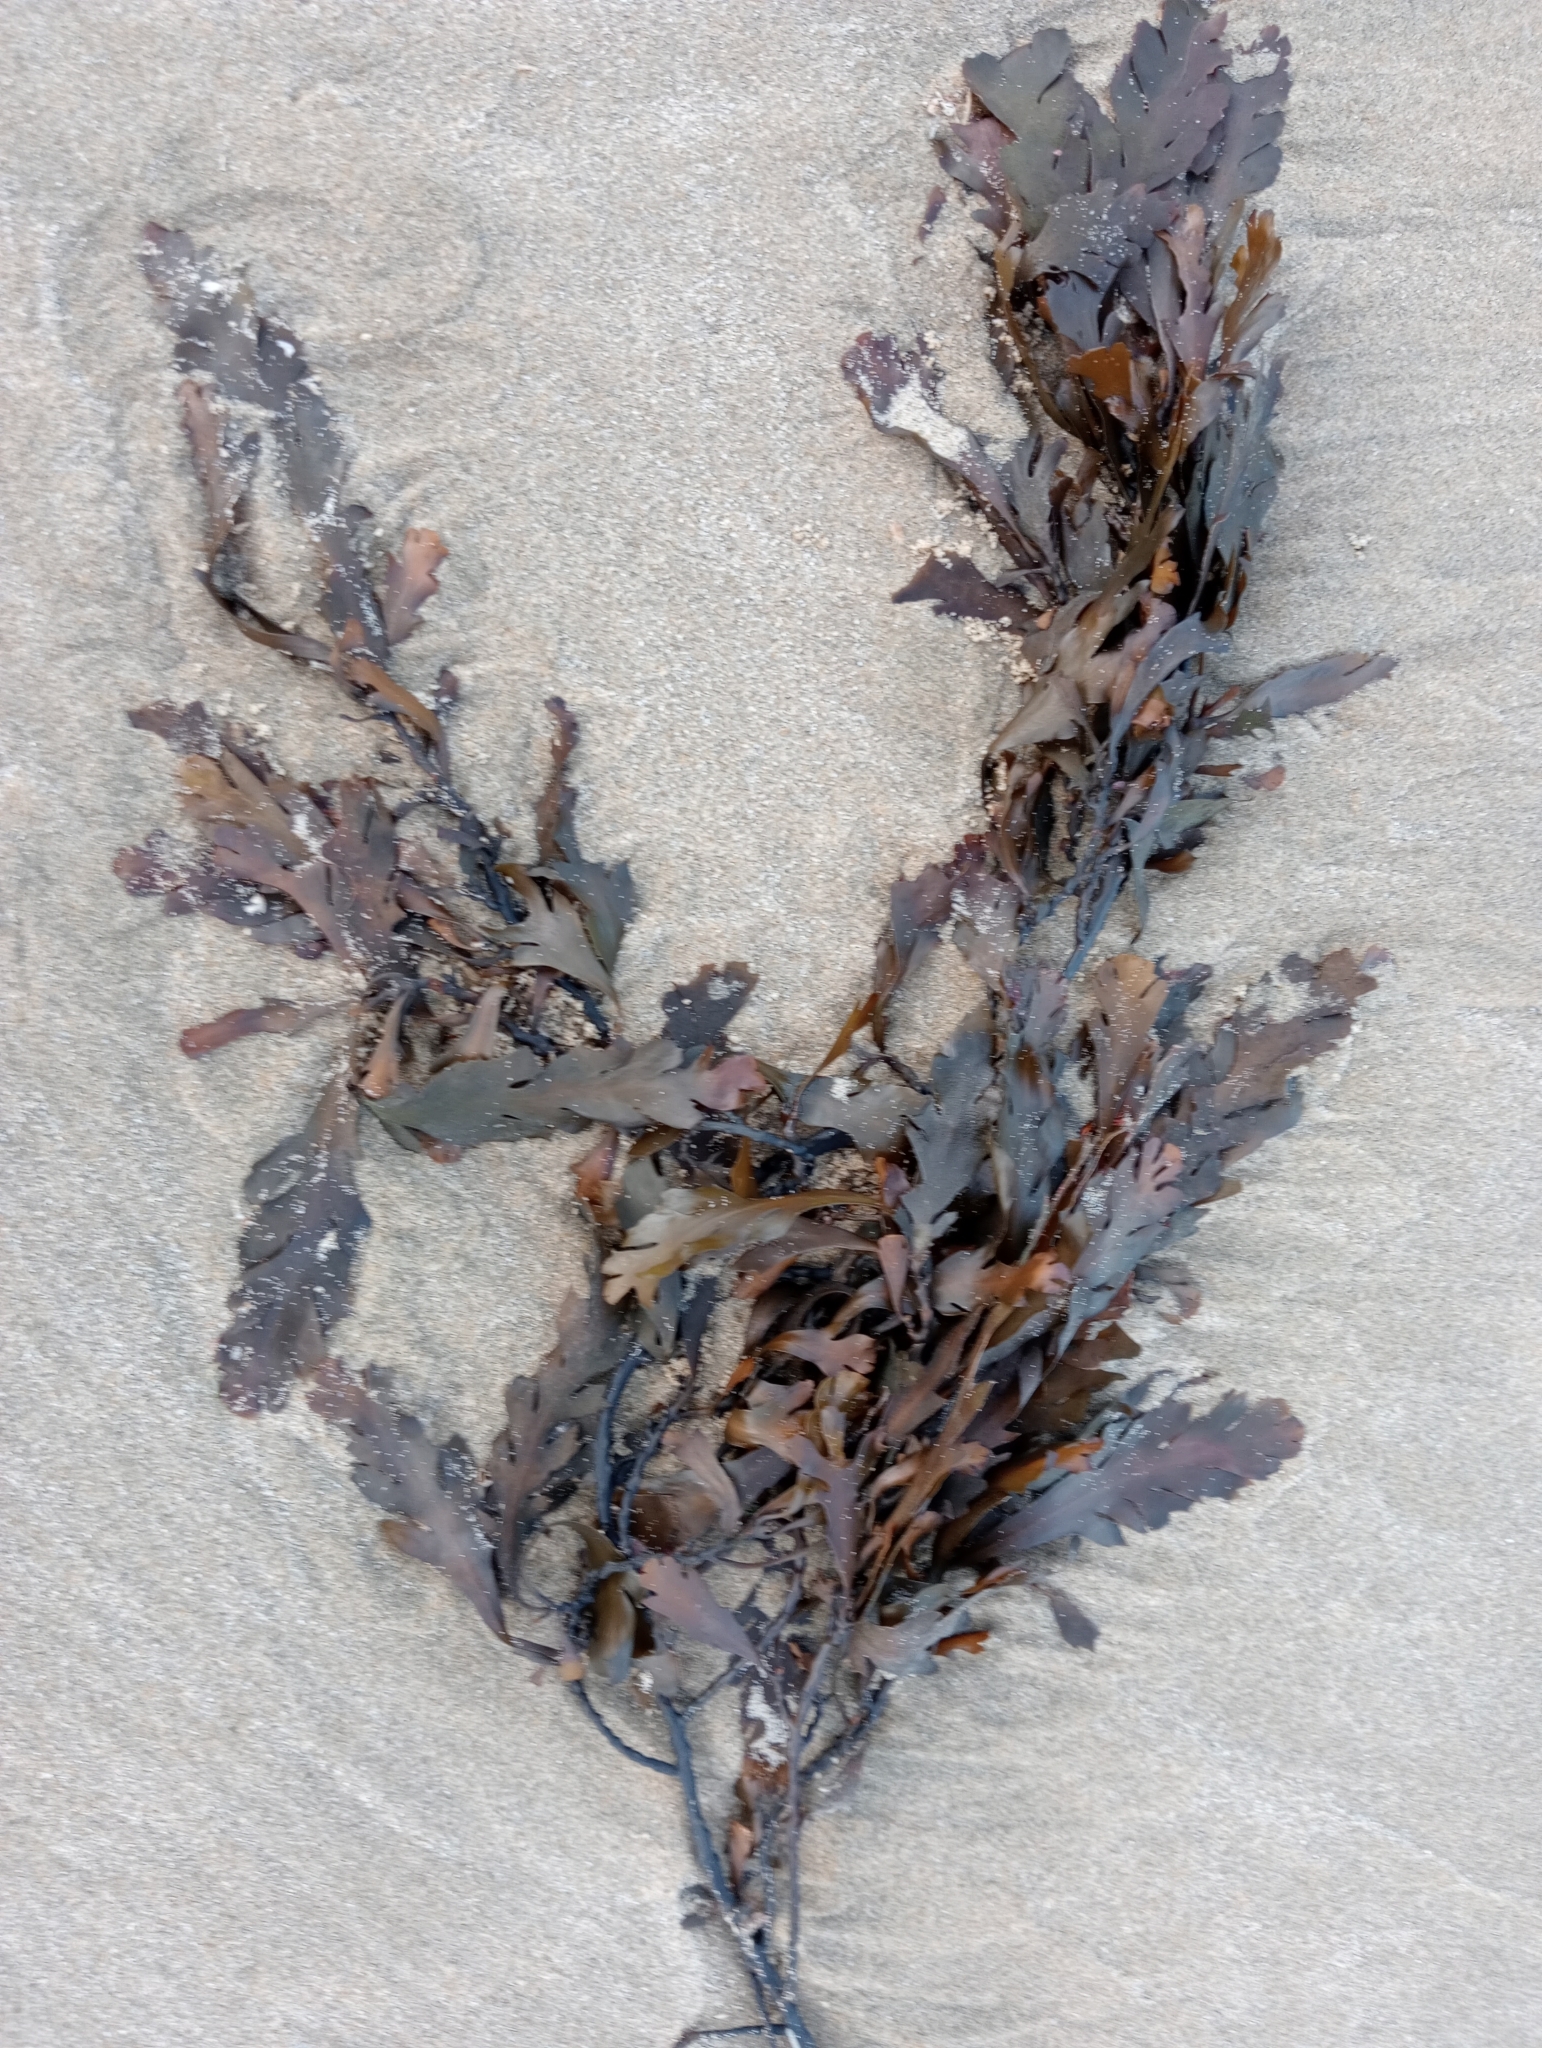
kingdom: Chromista
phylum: Ochrophyta
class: Phaeophyceae
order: Fucales
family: Sargassaceae
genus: Landsburgia
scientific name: Landsburgia quercifolia
